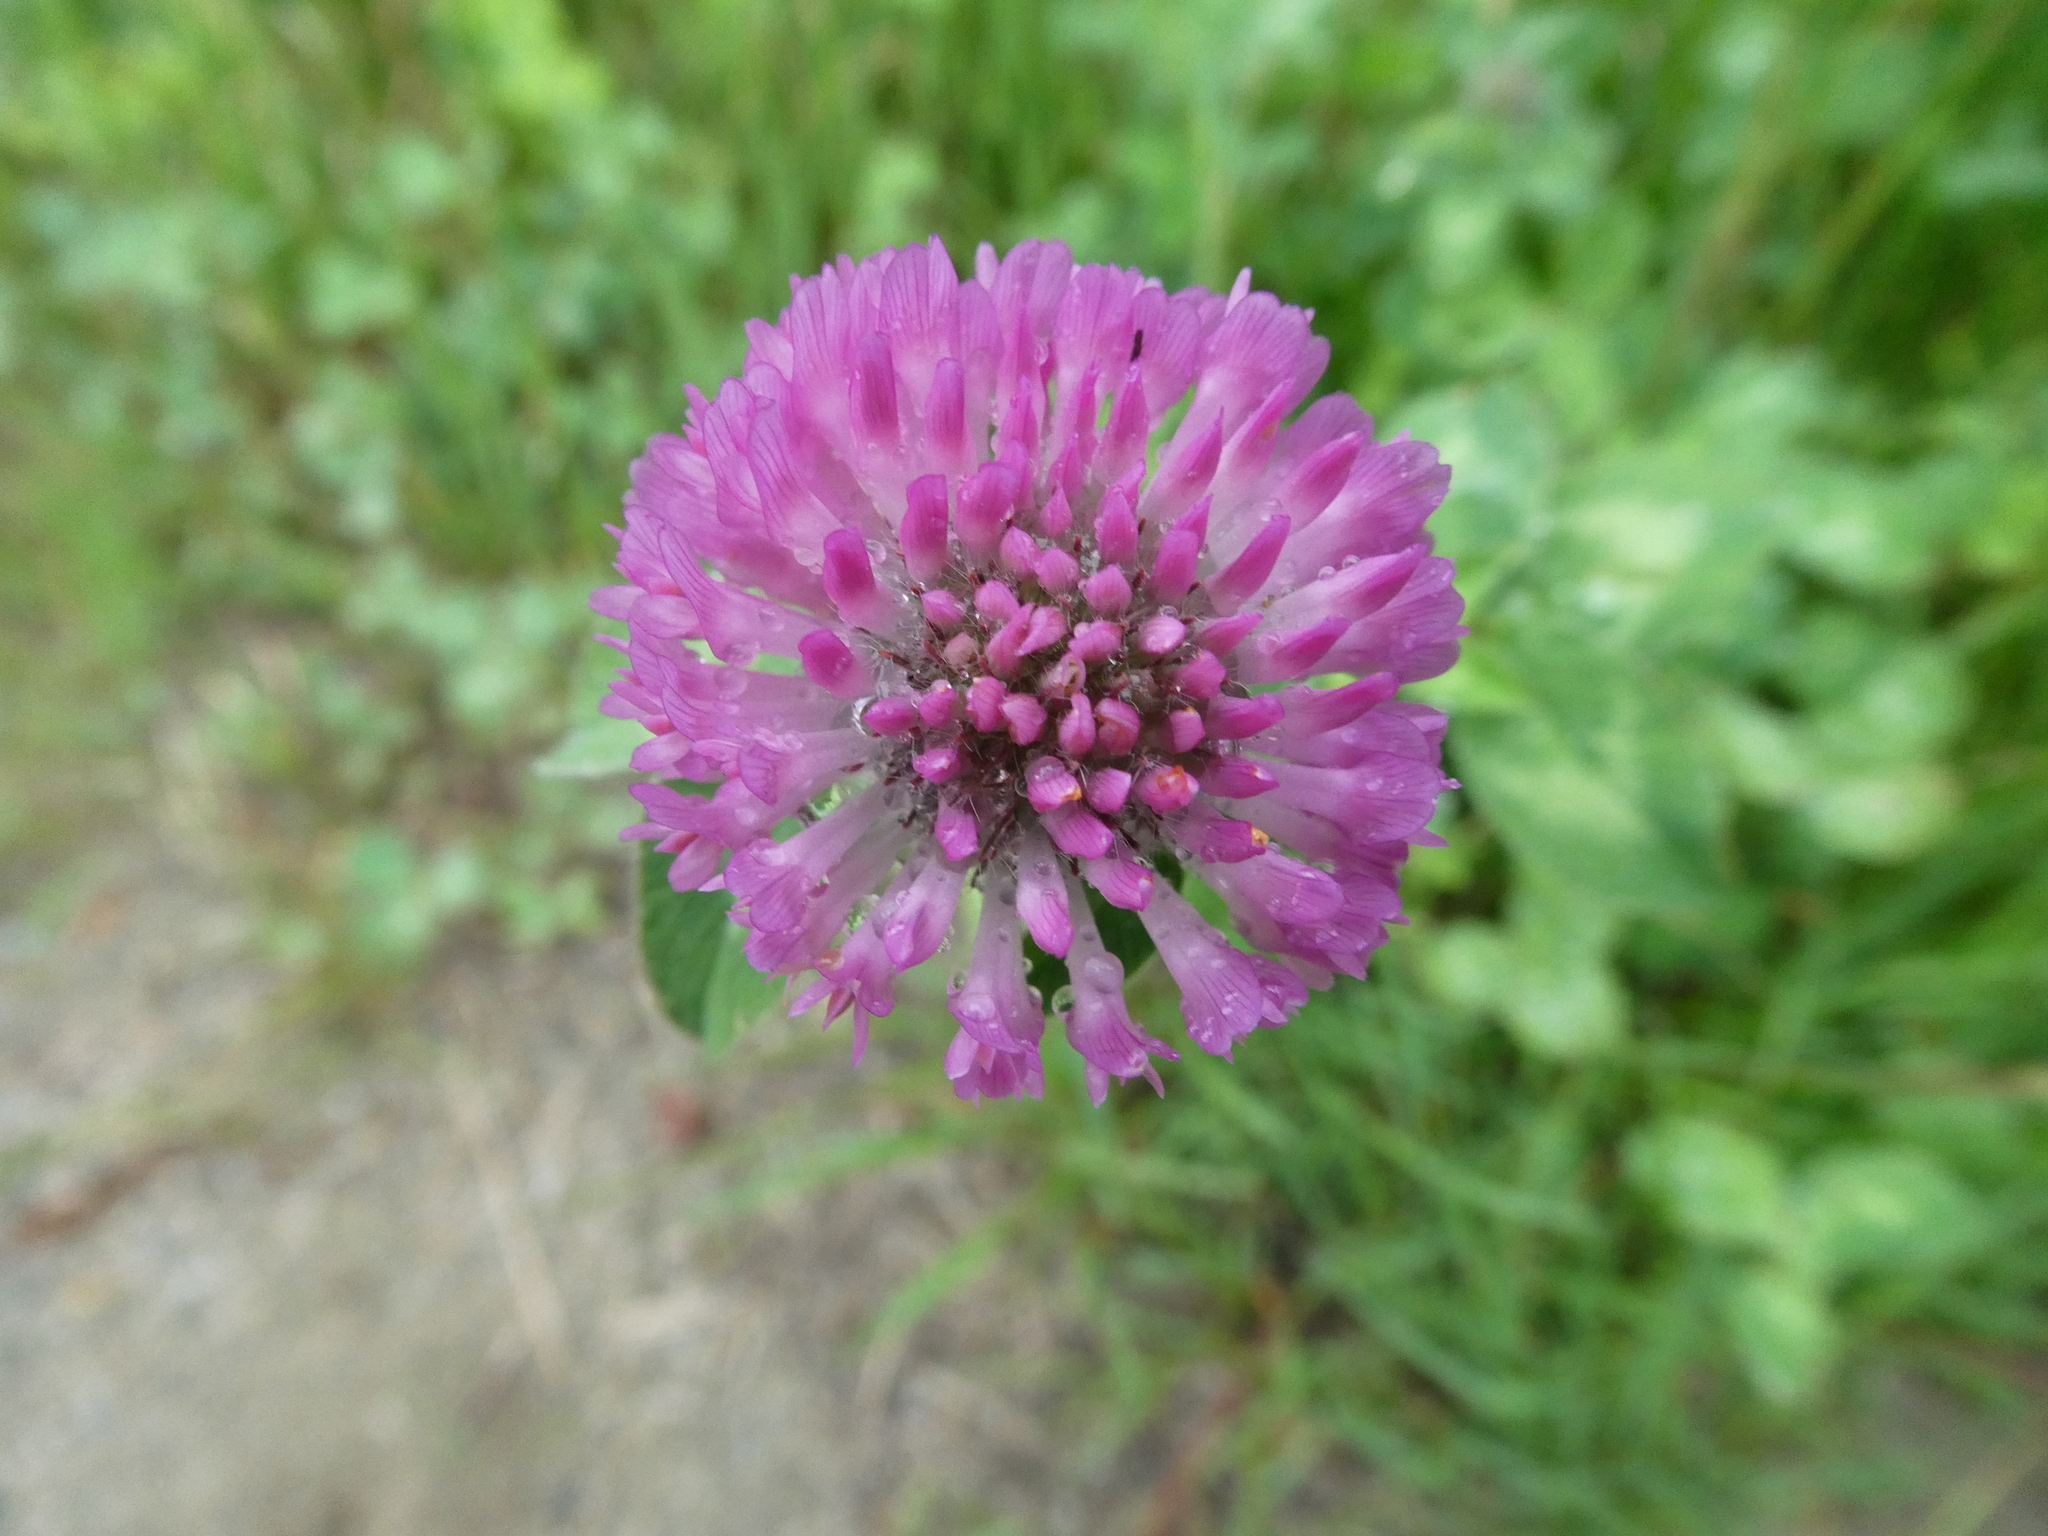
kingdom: Plantae
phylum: Tracheophyta
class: Magnoliopsida
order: Fabales
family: Fabaceae
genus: Trifolium
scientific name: Trifolium pratense
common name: Red clover
